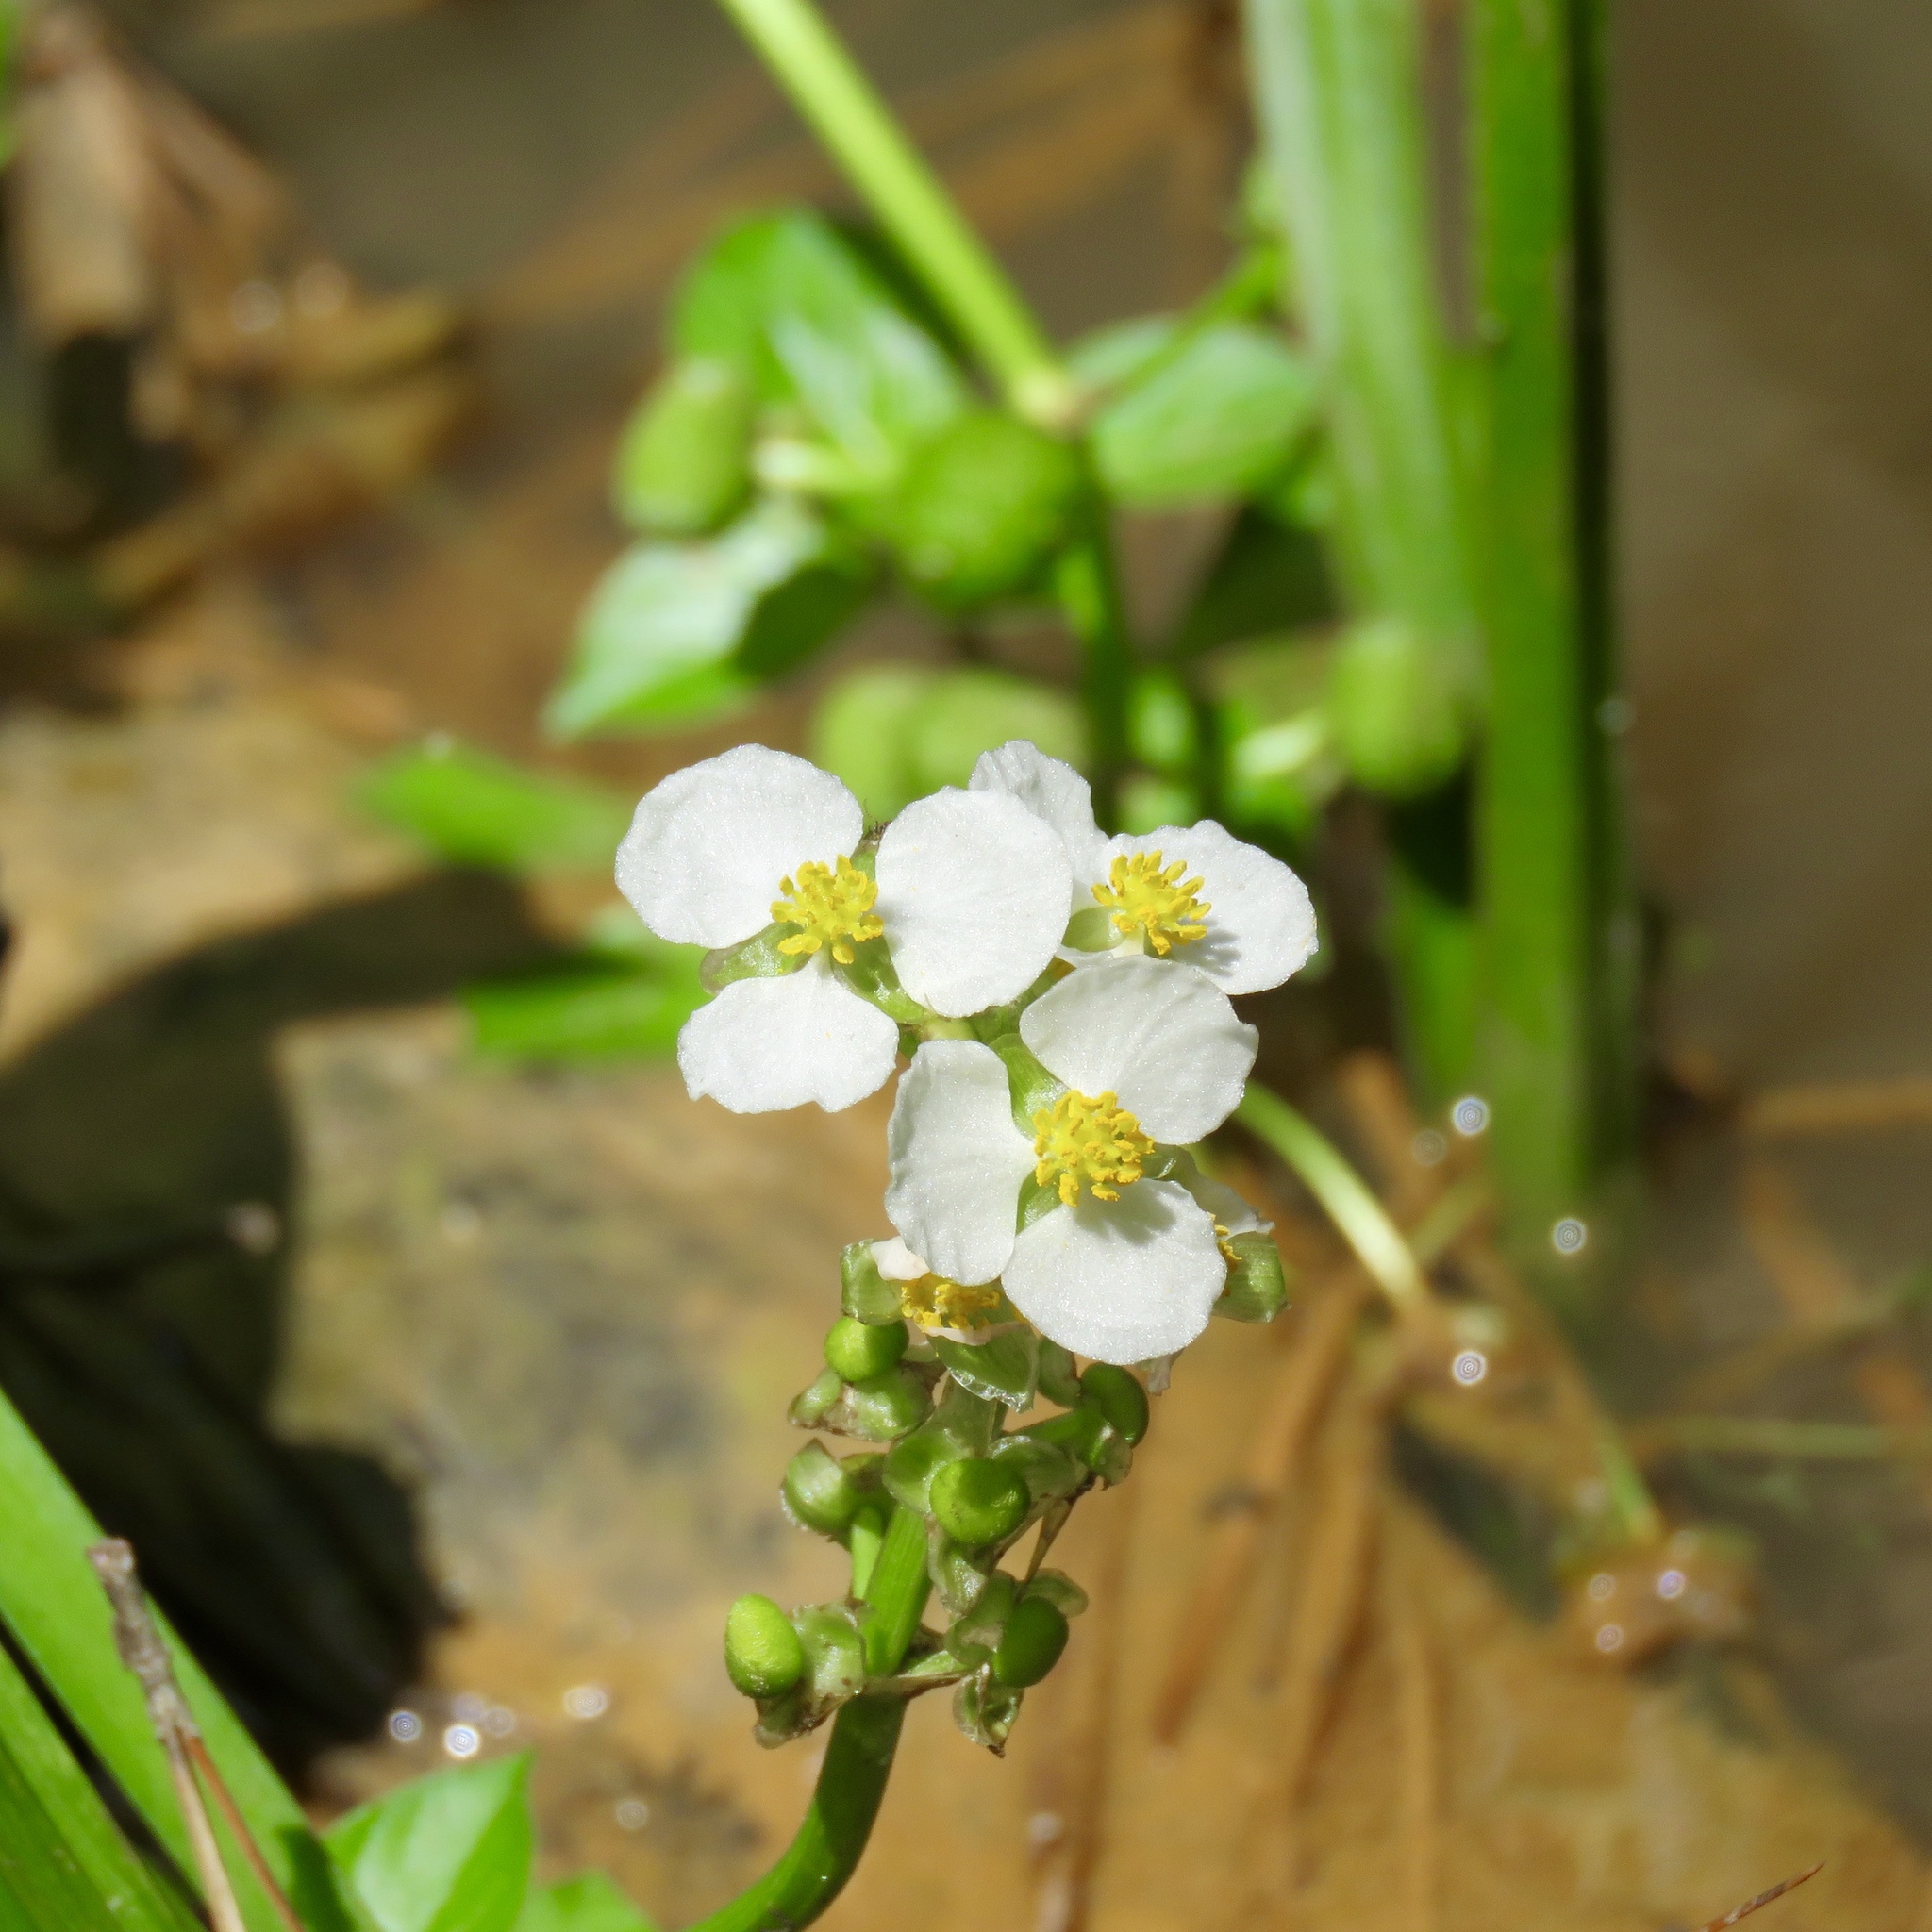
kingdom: Plantae
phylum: Tracheophyta
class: Liliopsida
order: Alismatales
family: Alismataceae
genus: Sagittaria
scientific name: Sagittaria platyphylla
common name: Broad-leaf arrowhead
